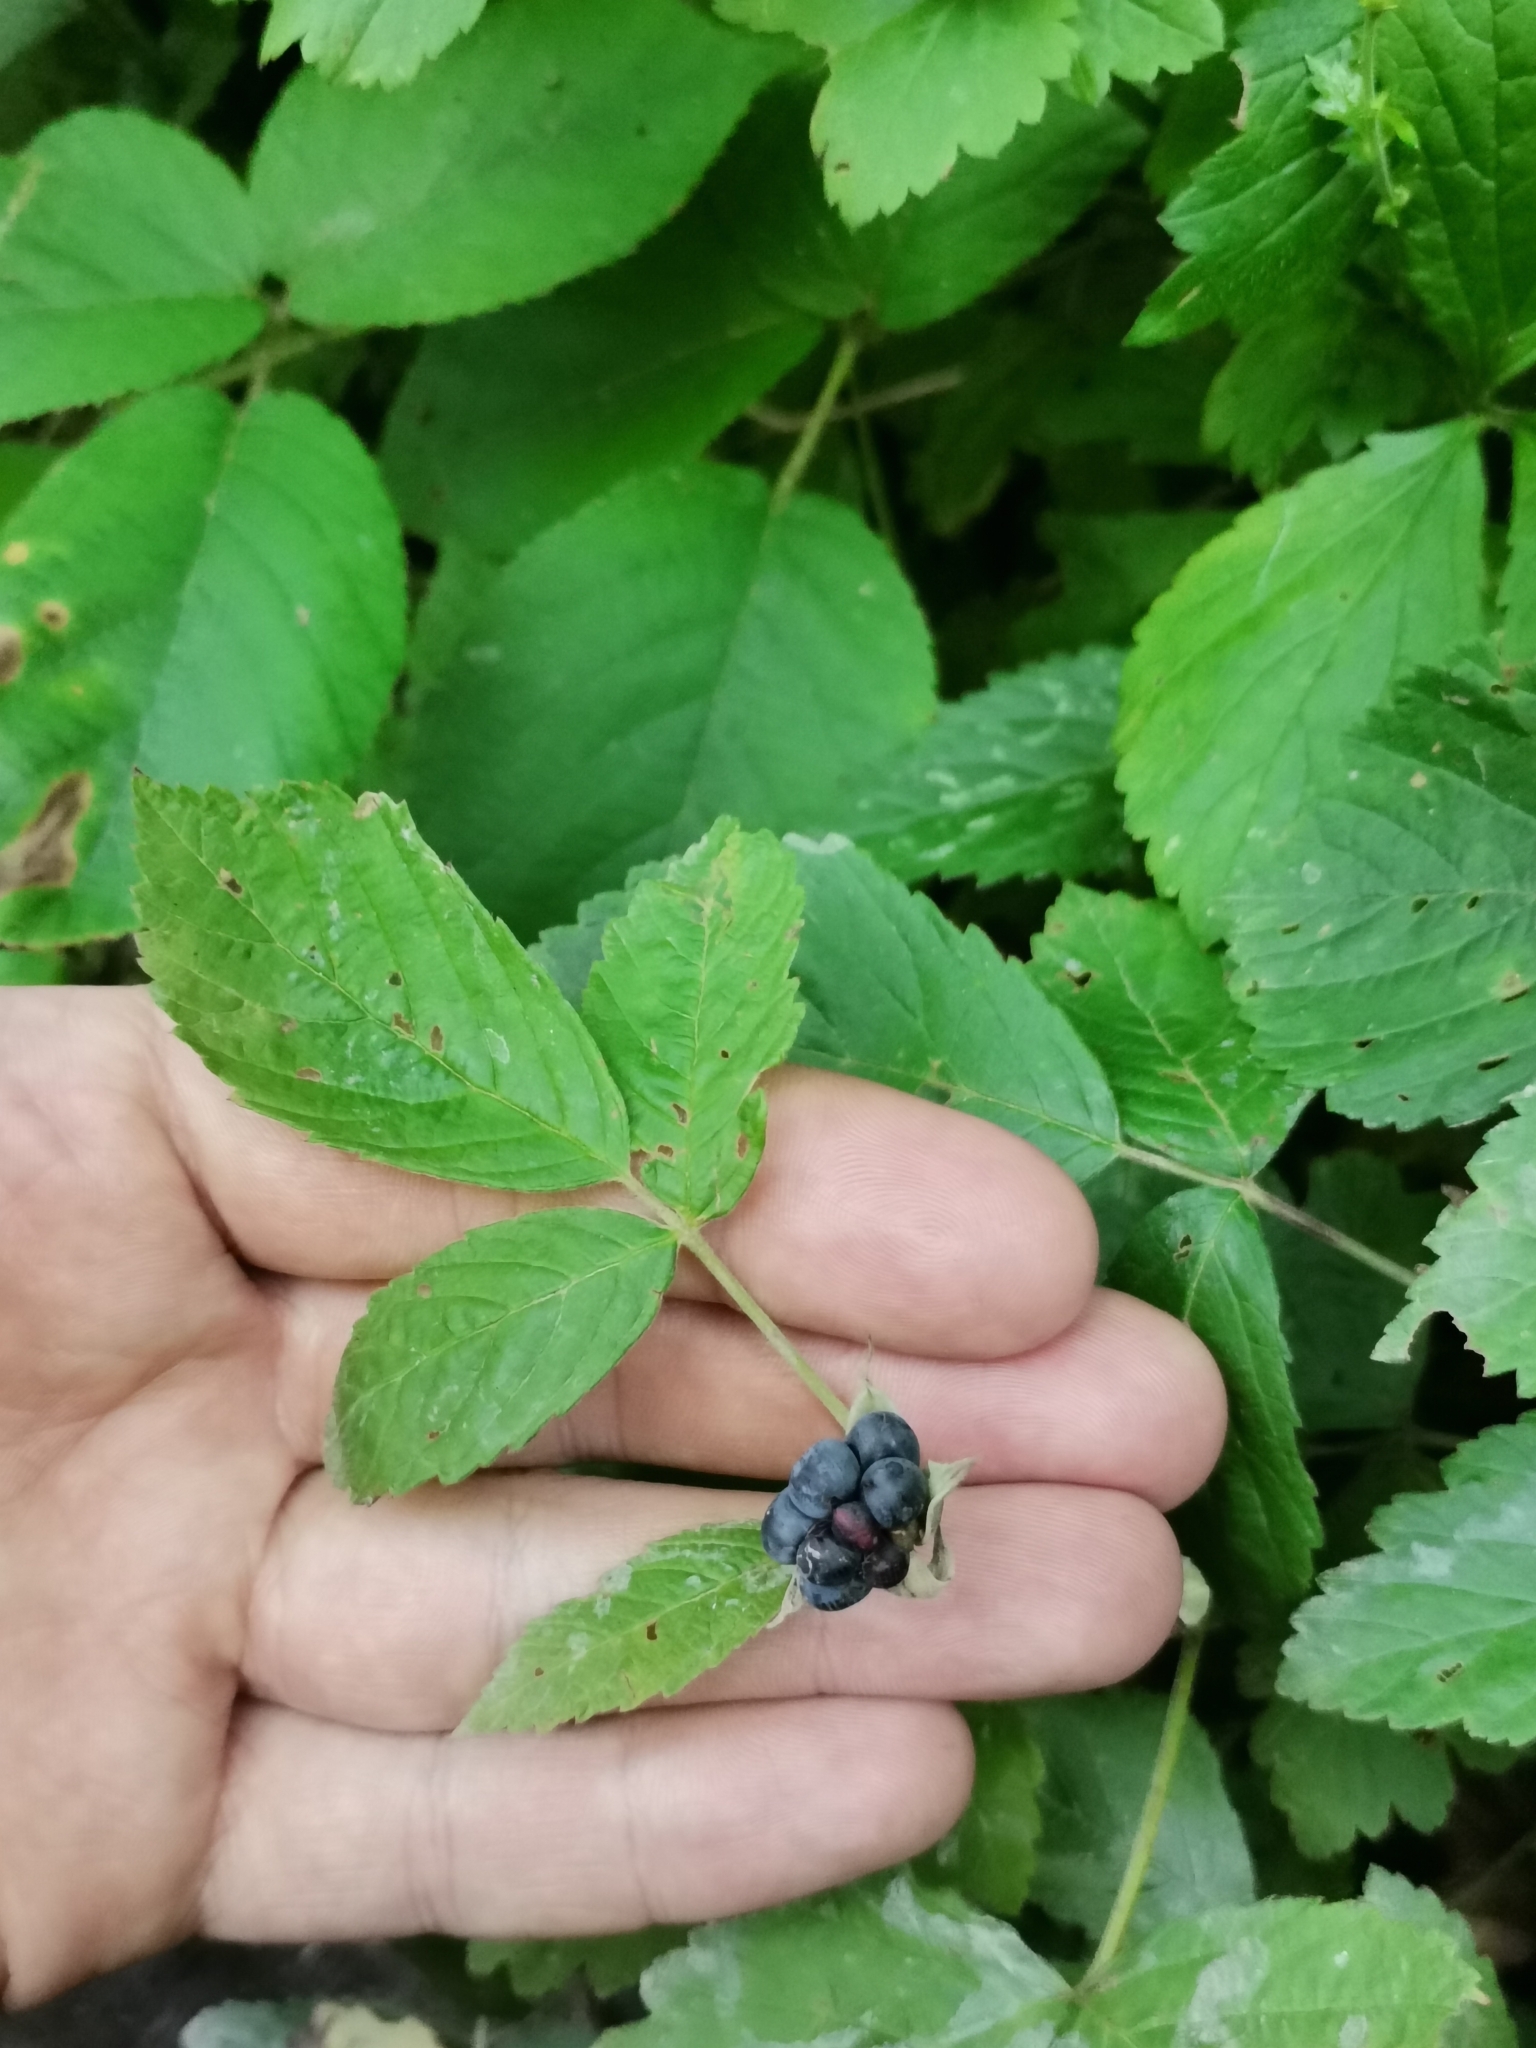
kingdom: Plantae
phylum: Tracheophyta
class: Magnoliopsida
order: Rosales
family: Rosaceae
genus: Rubus
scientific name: Rubus caesius
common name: Dewberry
